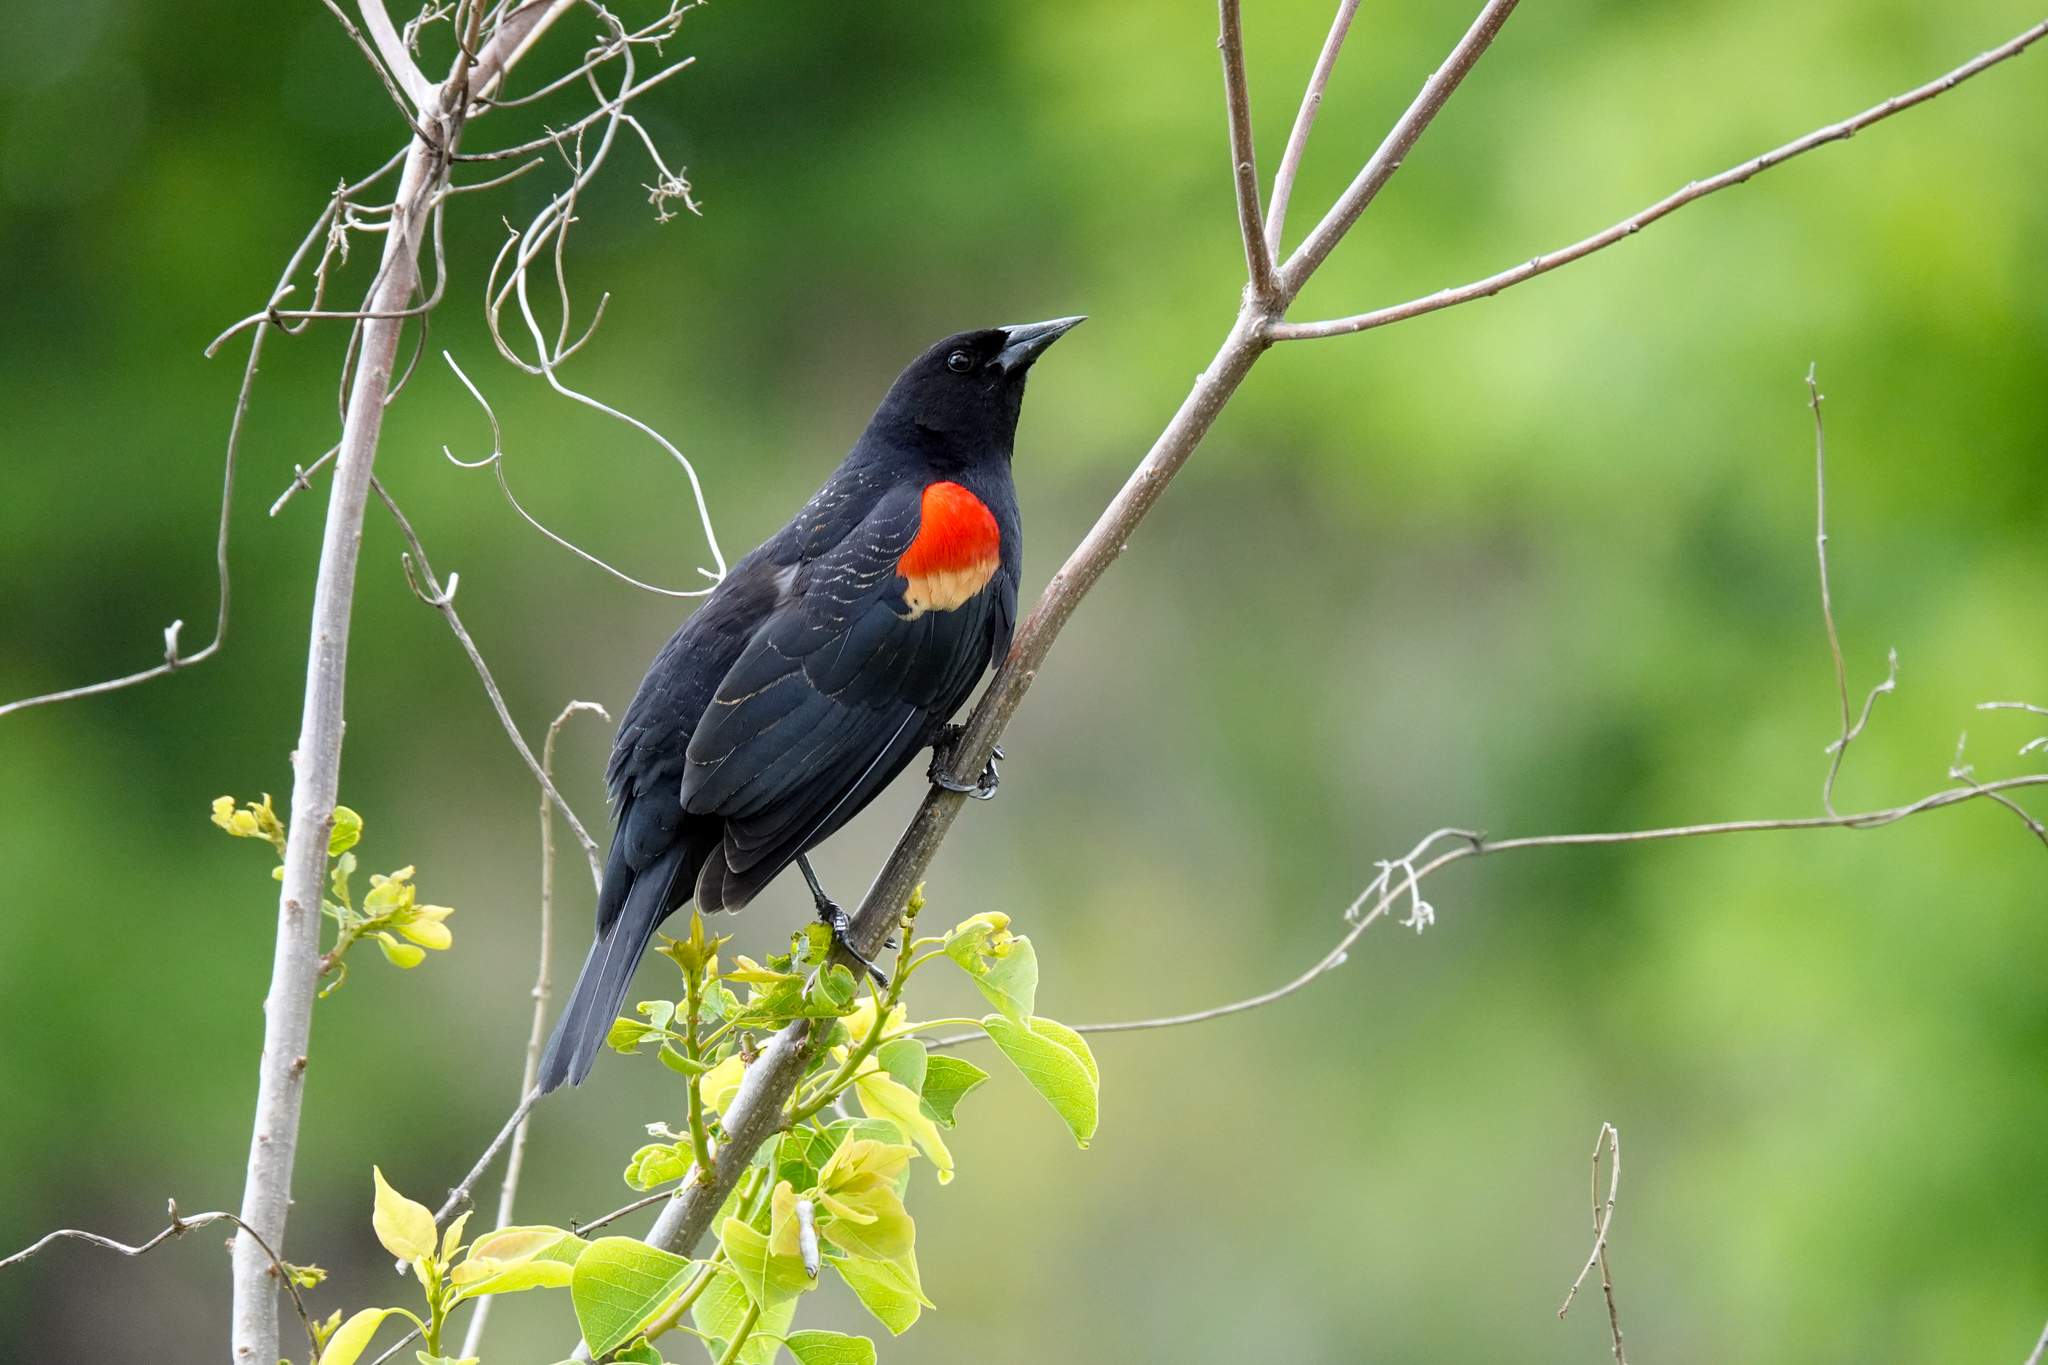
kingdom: Animalia
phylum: Chordata
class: Aves
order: Passeriformes
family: Icteridae
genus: Agelaius
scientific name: Agelaius phoeniceus
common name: Red-winged blackbird
